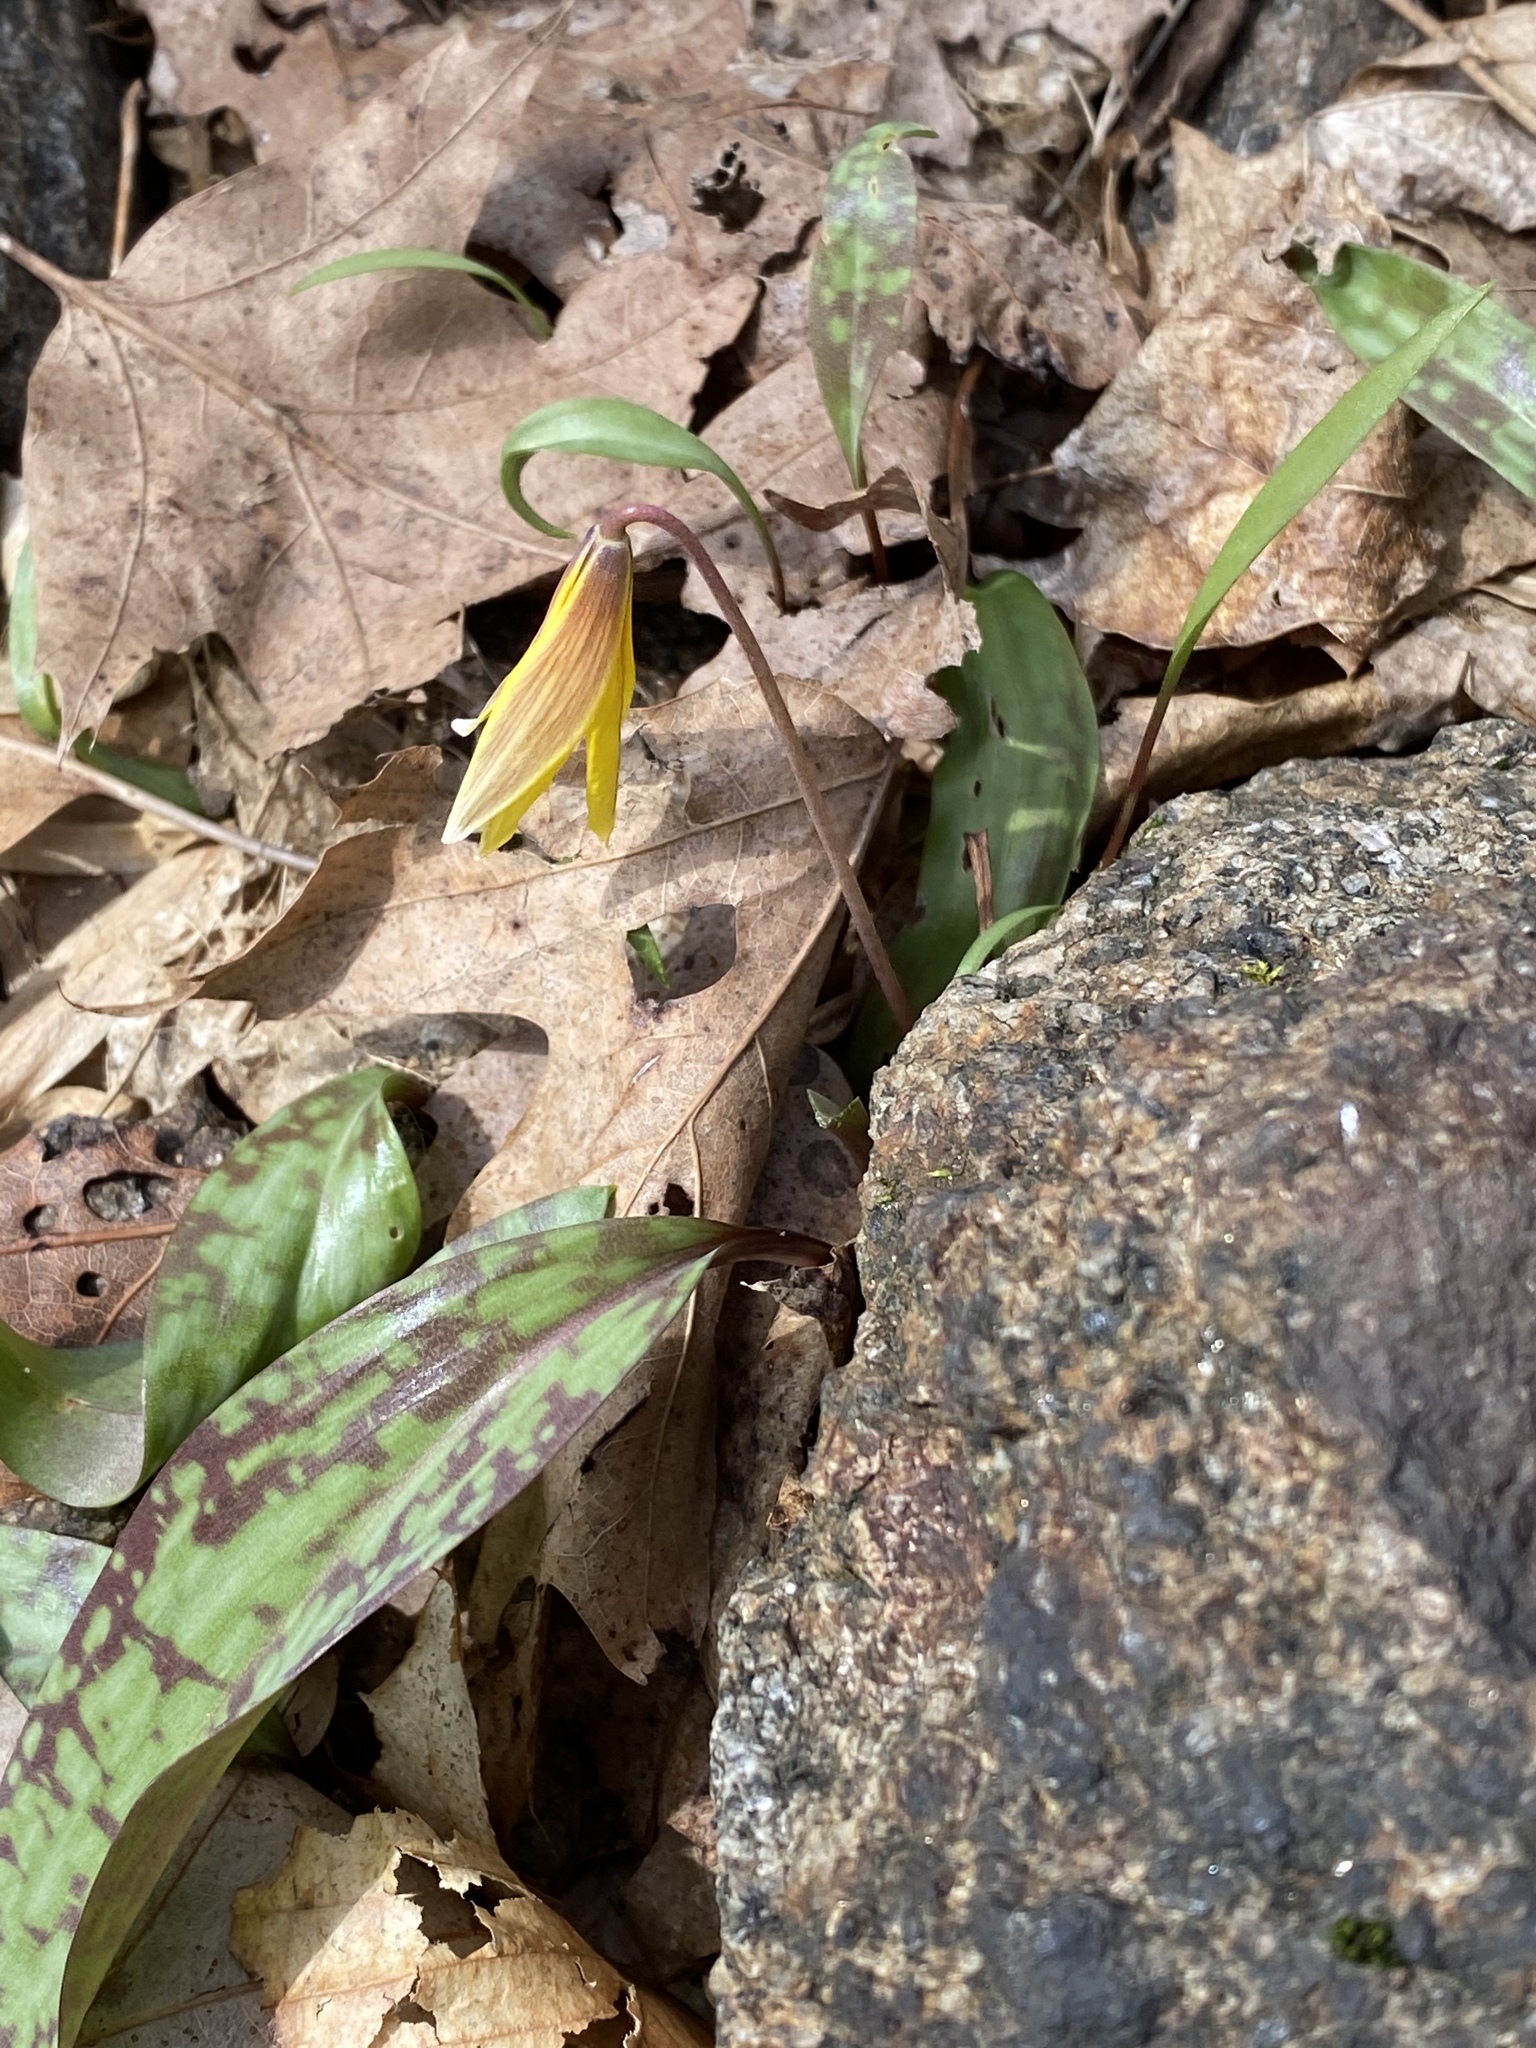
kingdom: Plantae
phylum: Tracheophyta
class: Liliopsida
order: Liliales
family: Liliaceae
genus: Erythronium
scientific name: Erythronium americanum
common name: Yellow adder's-tongue
